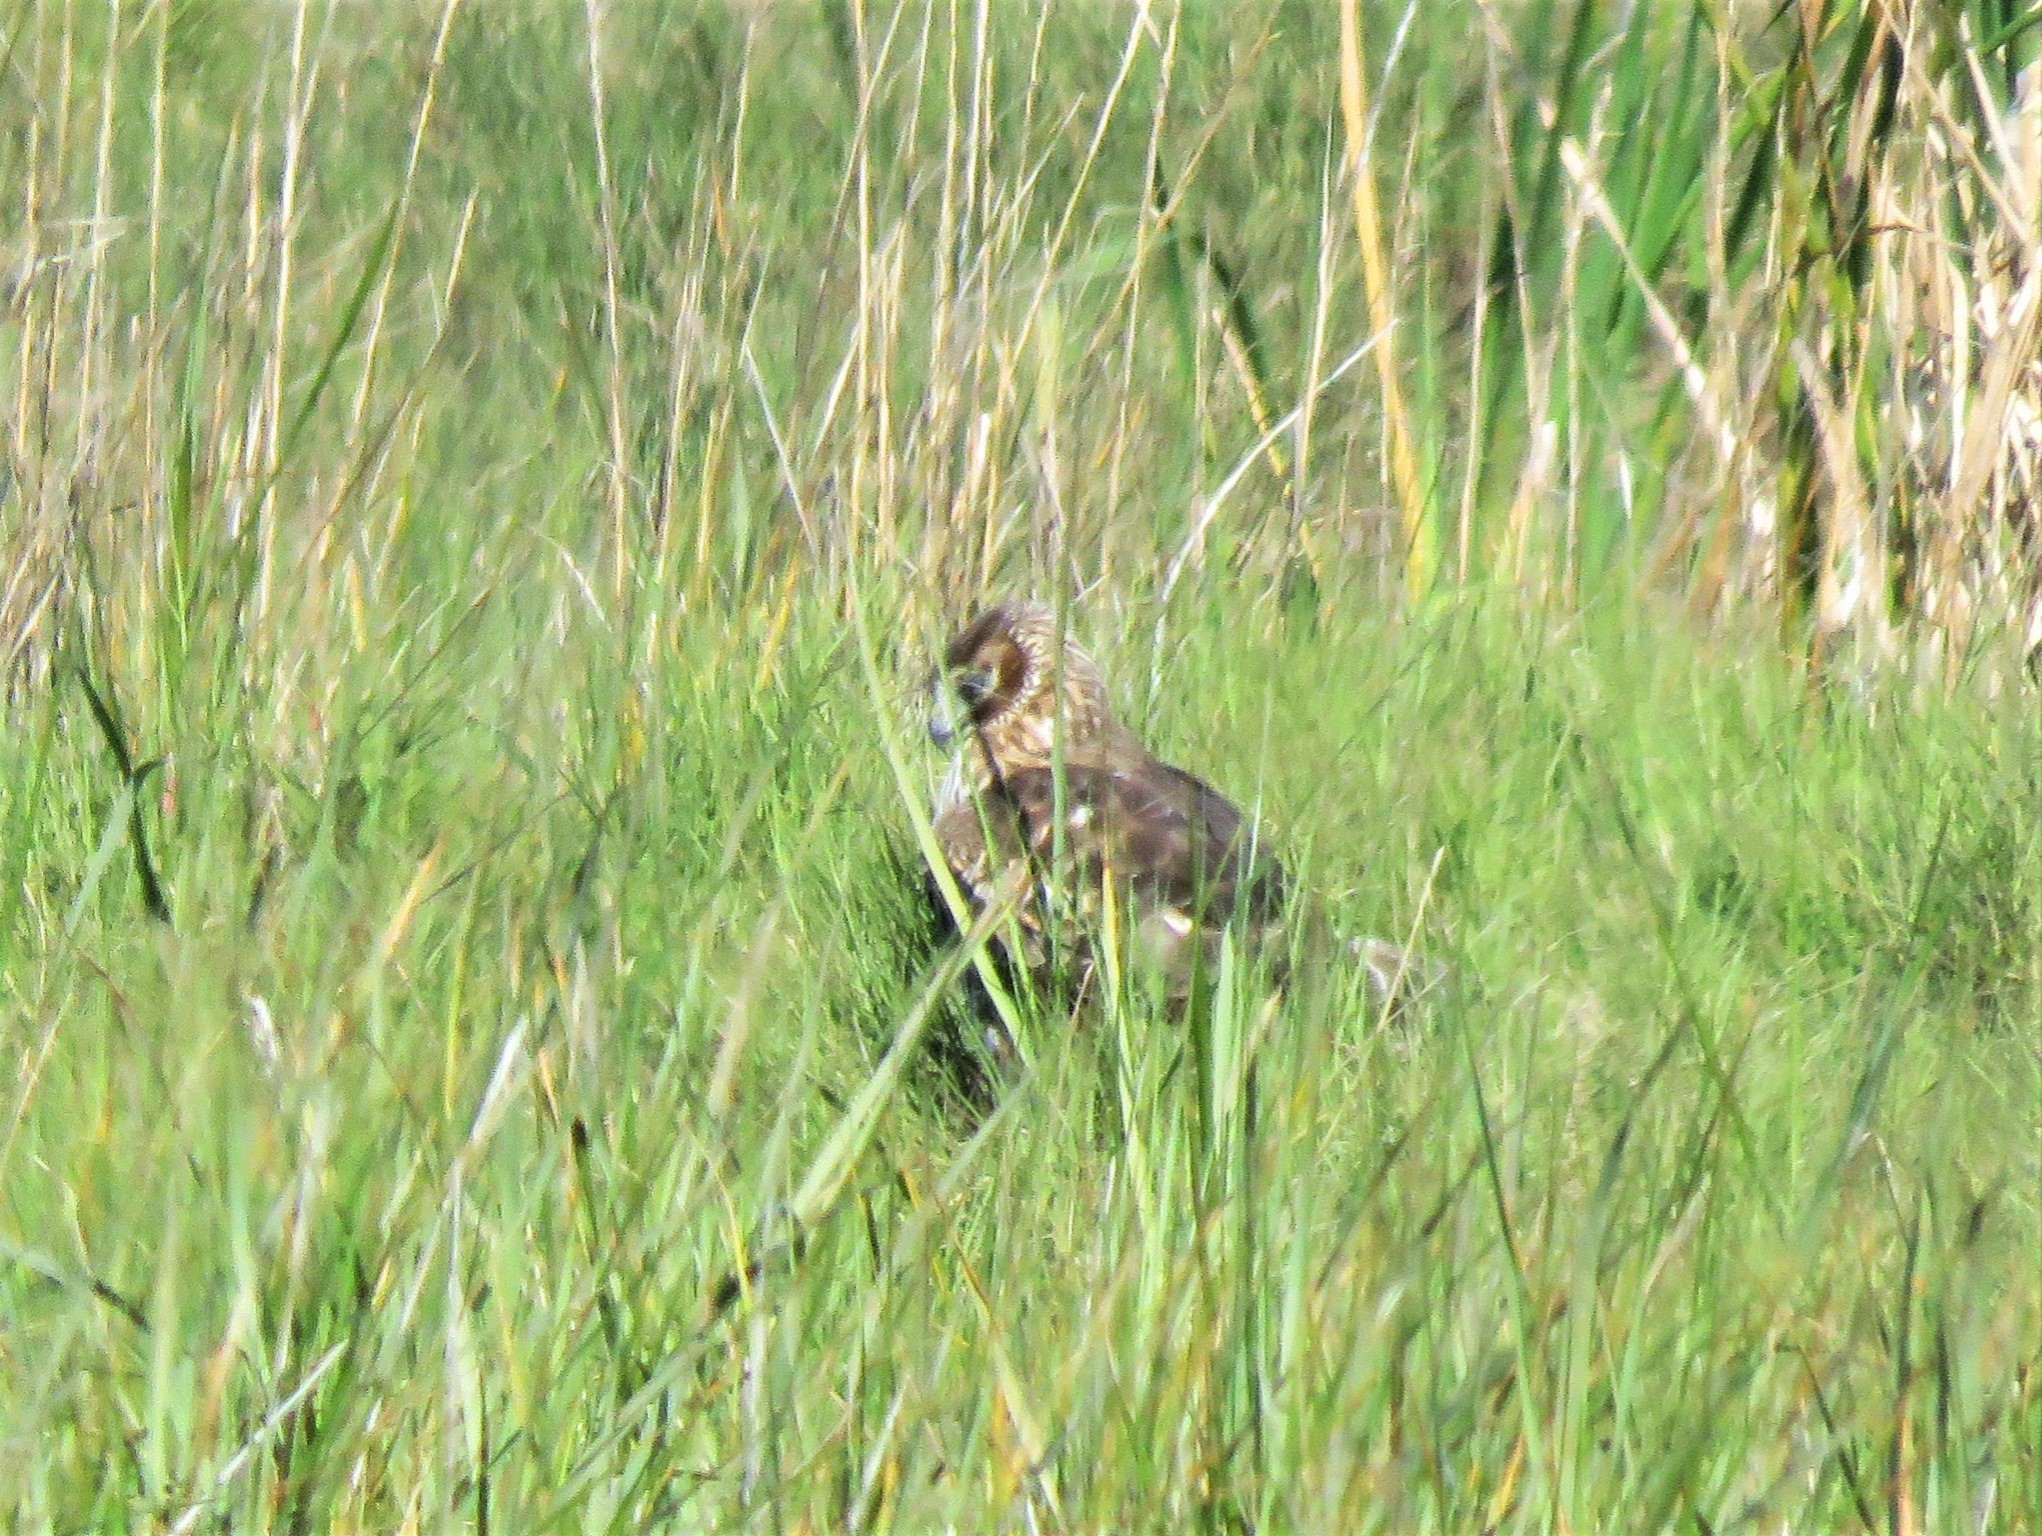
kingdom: Animalia
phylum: Chordata
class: Aves
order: Accipitriformes
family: Accipitridae
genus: Circus
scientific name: Circus cyaneus
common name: Hen harrier
